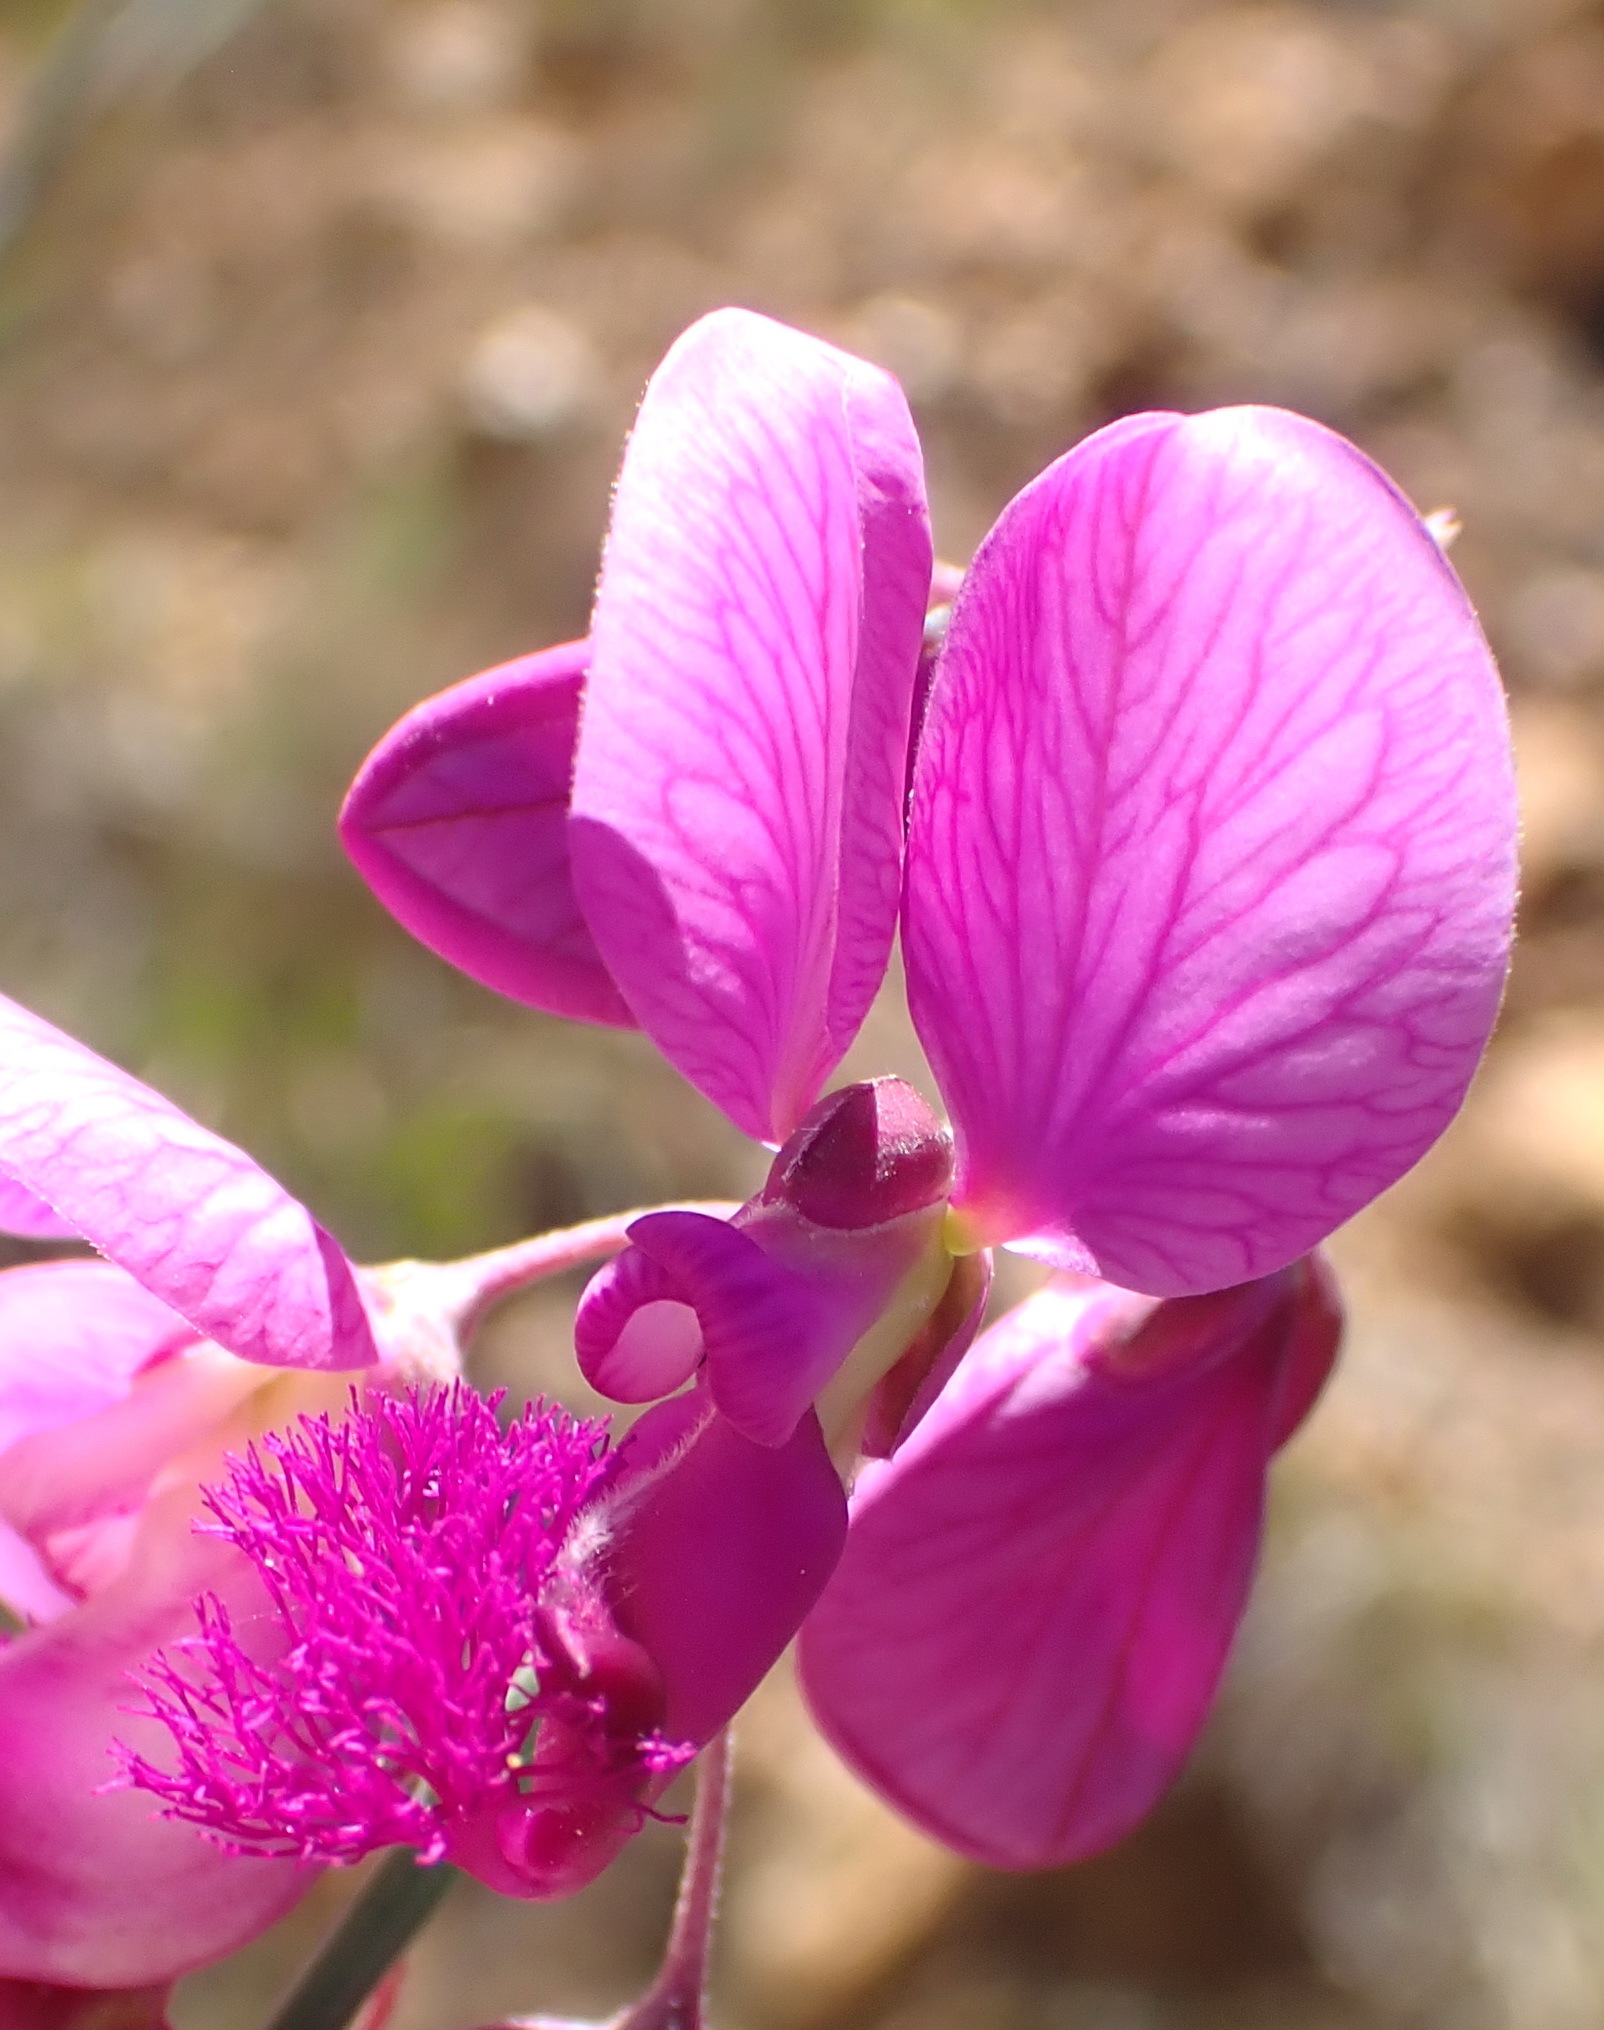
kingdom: Plantae
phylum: Tracheophyta
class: Magnoliopsida
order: Fabales
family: Polygalaceae
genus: Polygala
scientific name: Polygala virgata
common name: Milkwort
